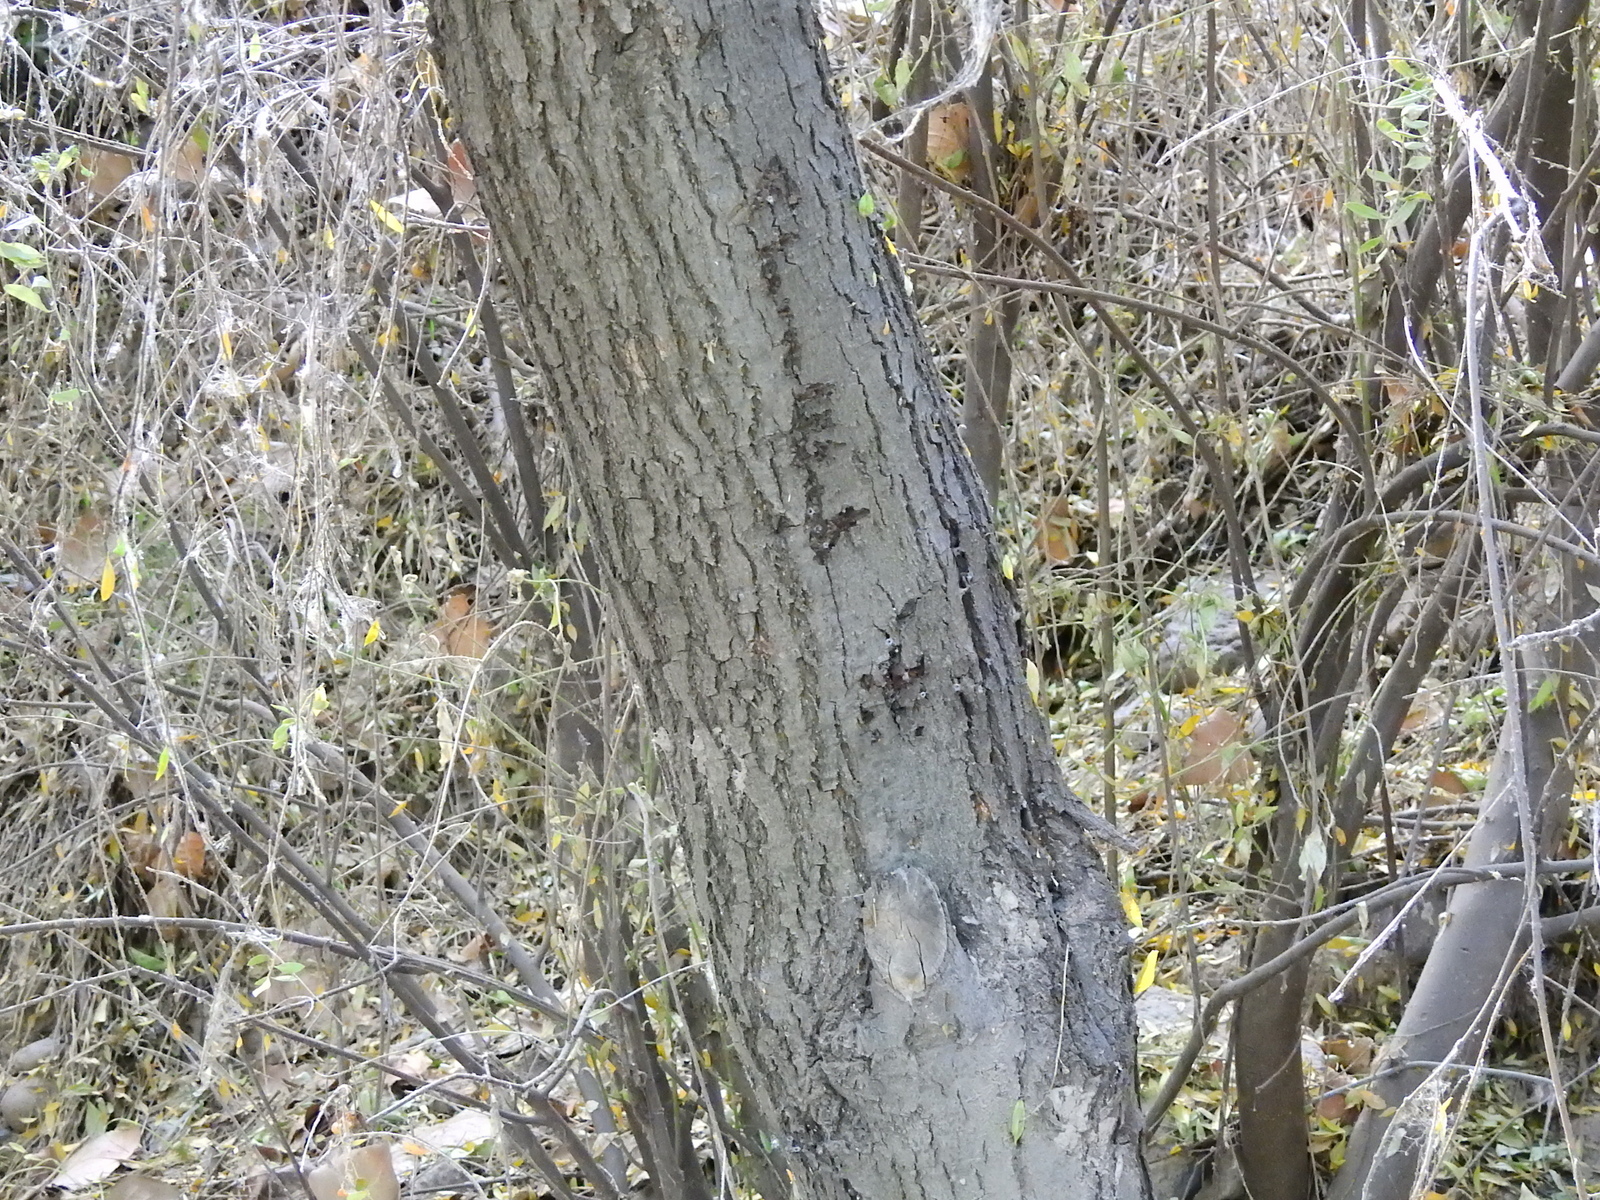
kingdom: Plantae
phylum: Tracheophyta
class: Magnoliopsida
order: Celastrales
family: Celastraceae
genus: Maytenus
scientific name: Maytenus boaria
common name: Mayten
